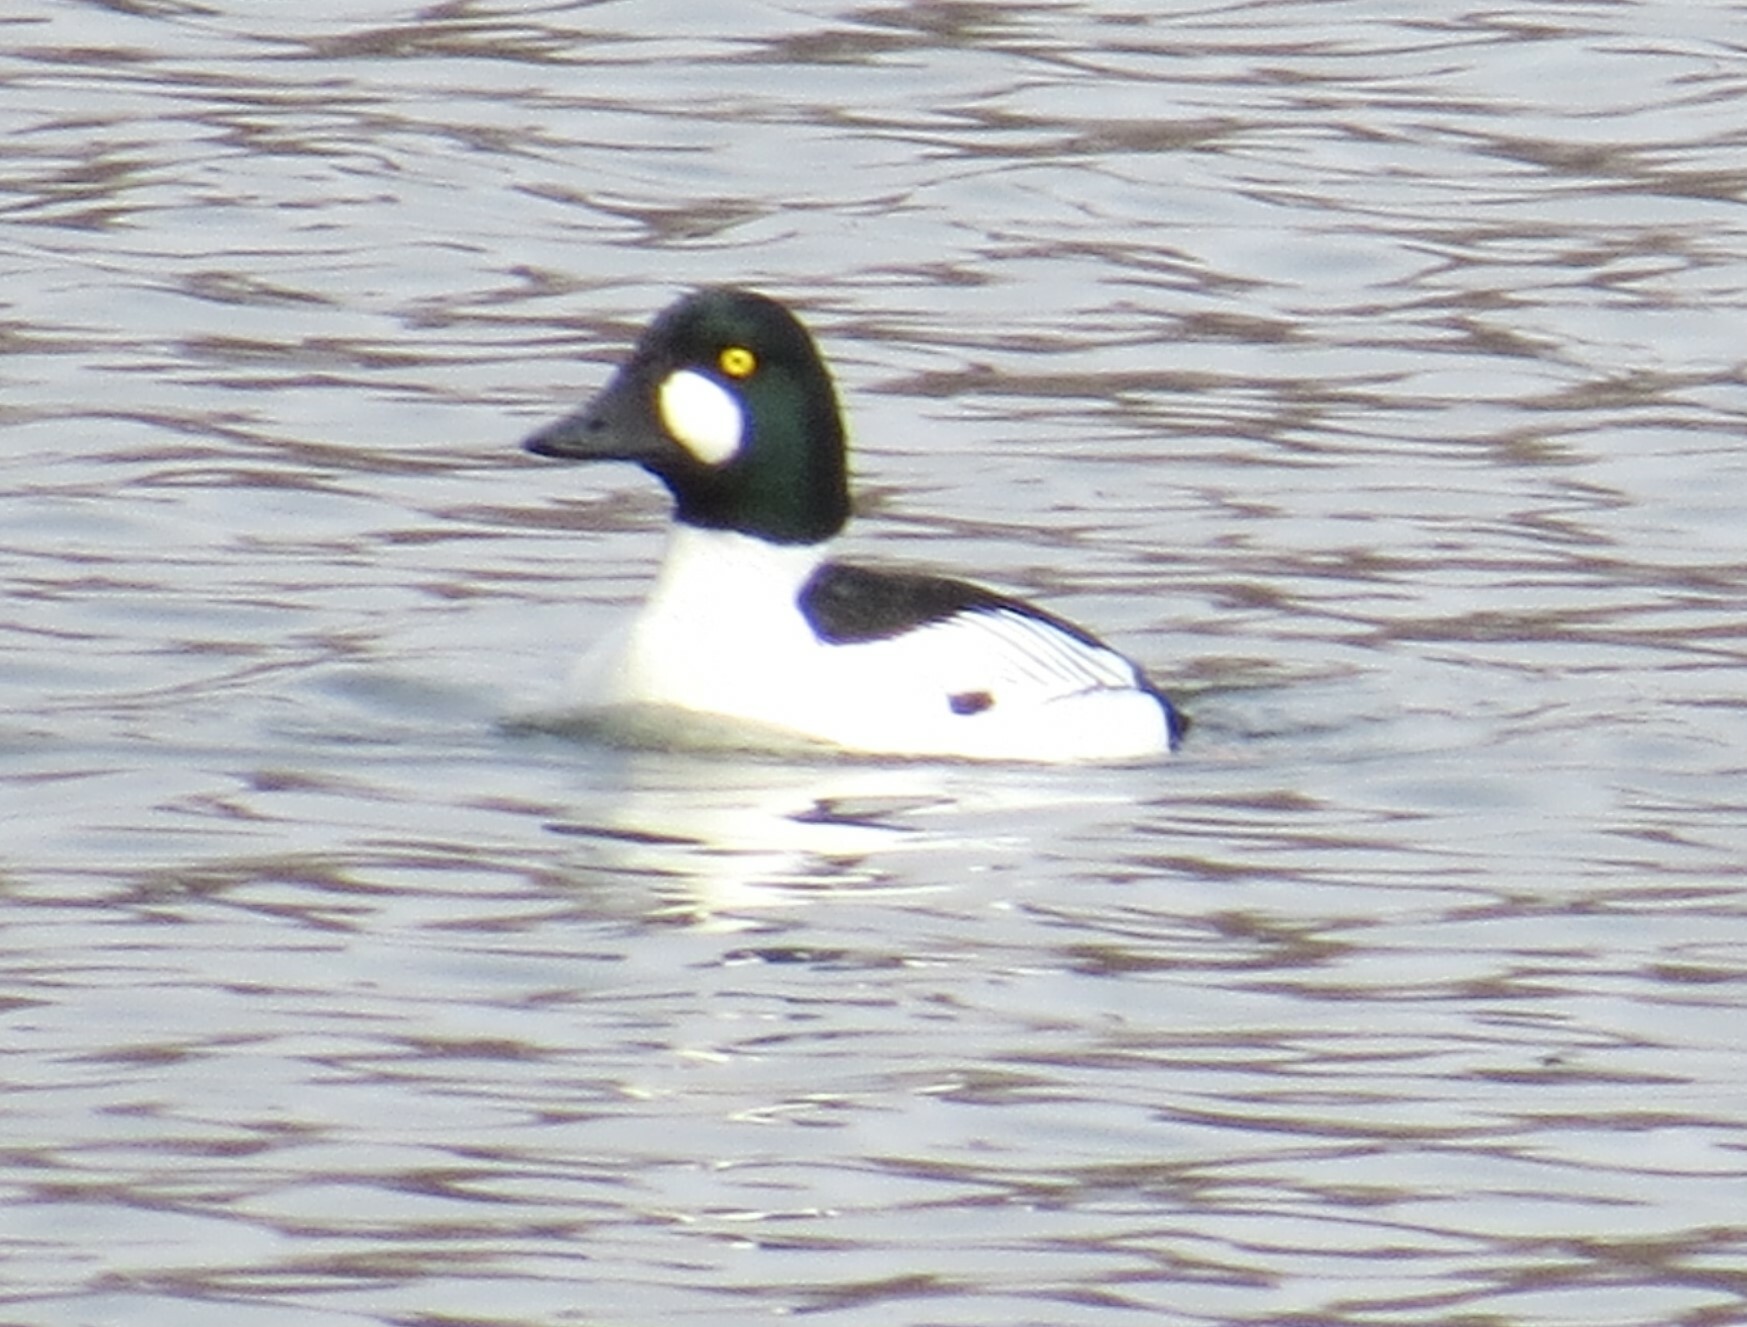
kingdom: Animalia
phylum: Chordata
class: Aves
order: Anseriformes
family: Anatidae
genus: Bucephala
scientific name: Bucephala clangula
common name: Common goldeneye
